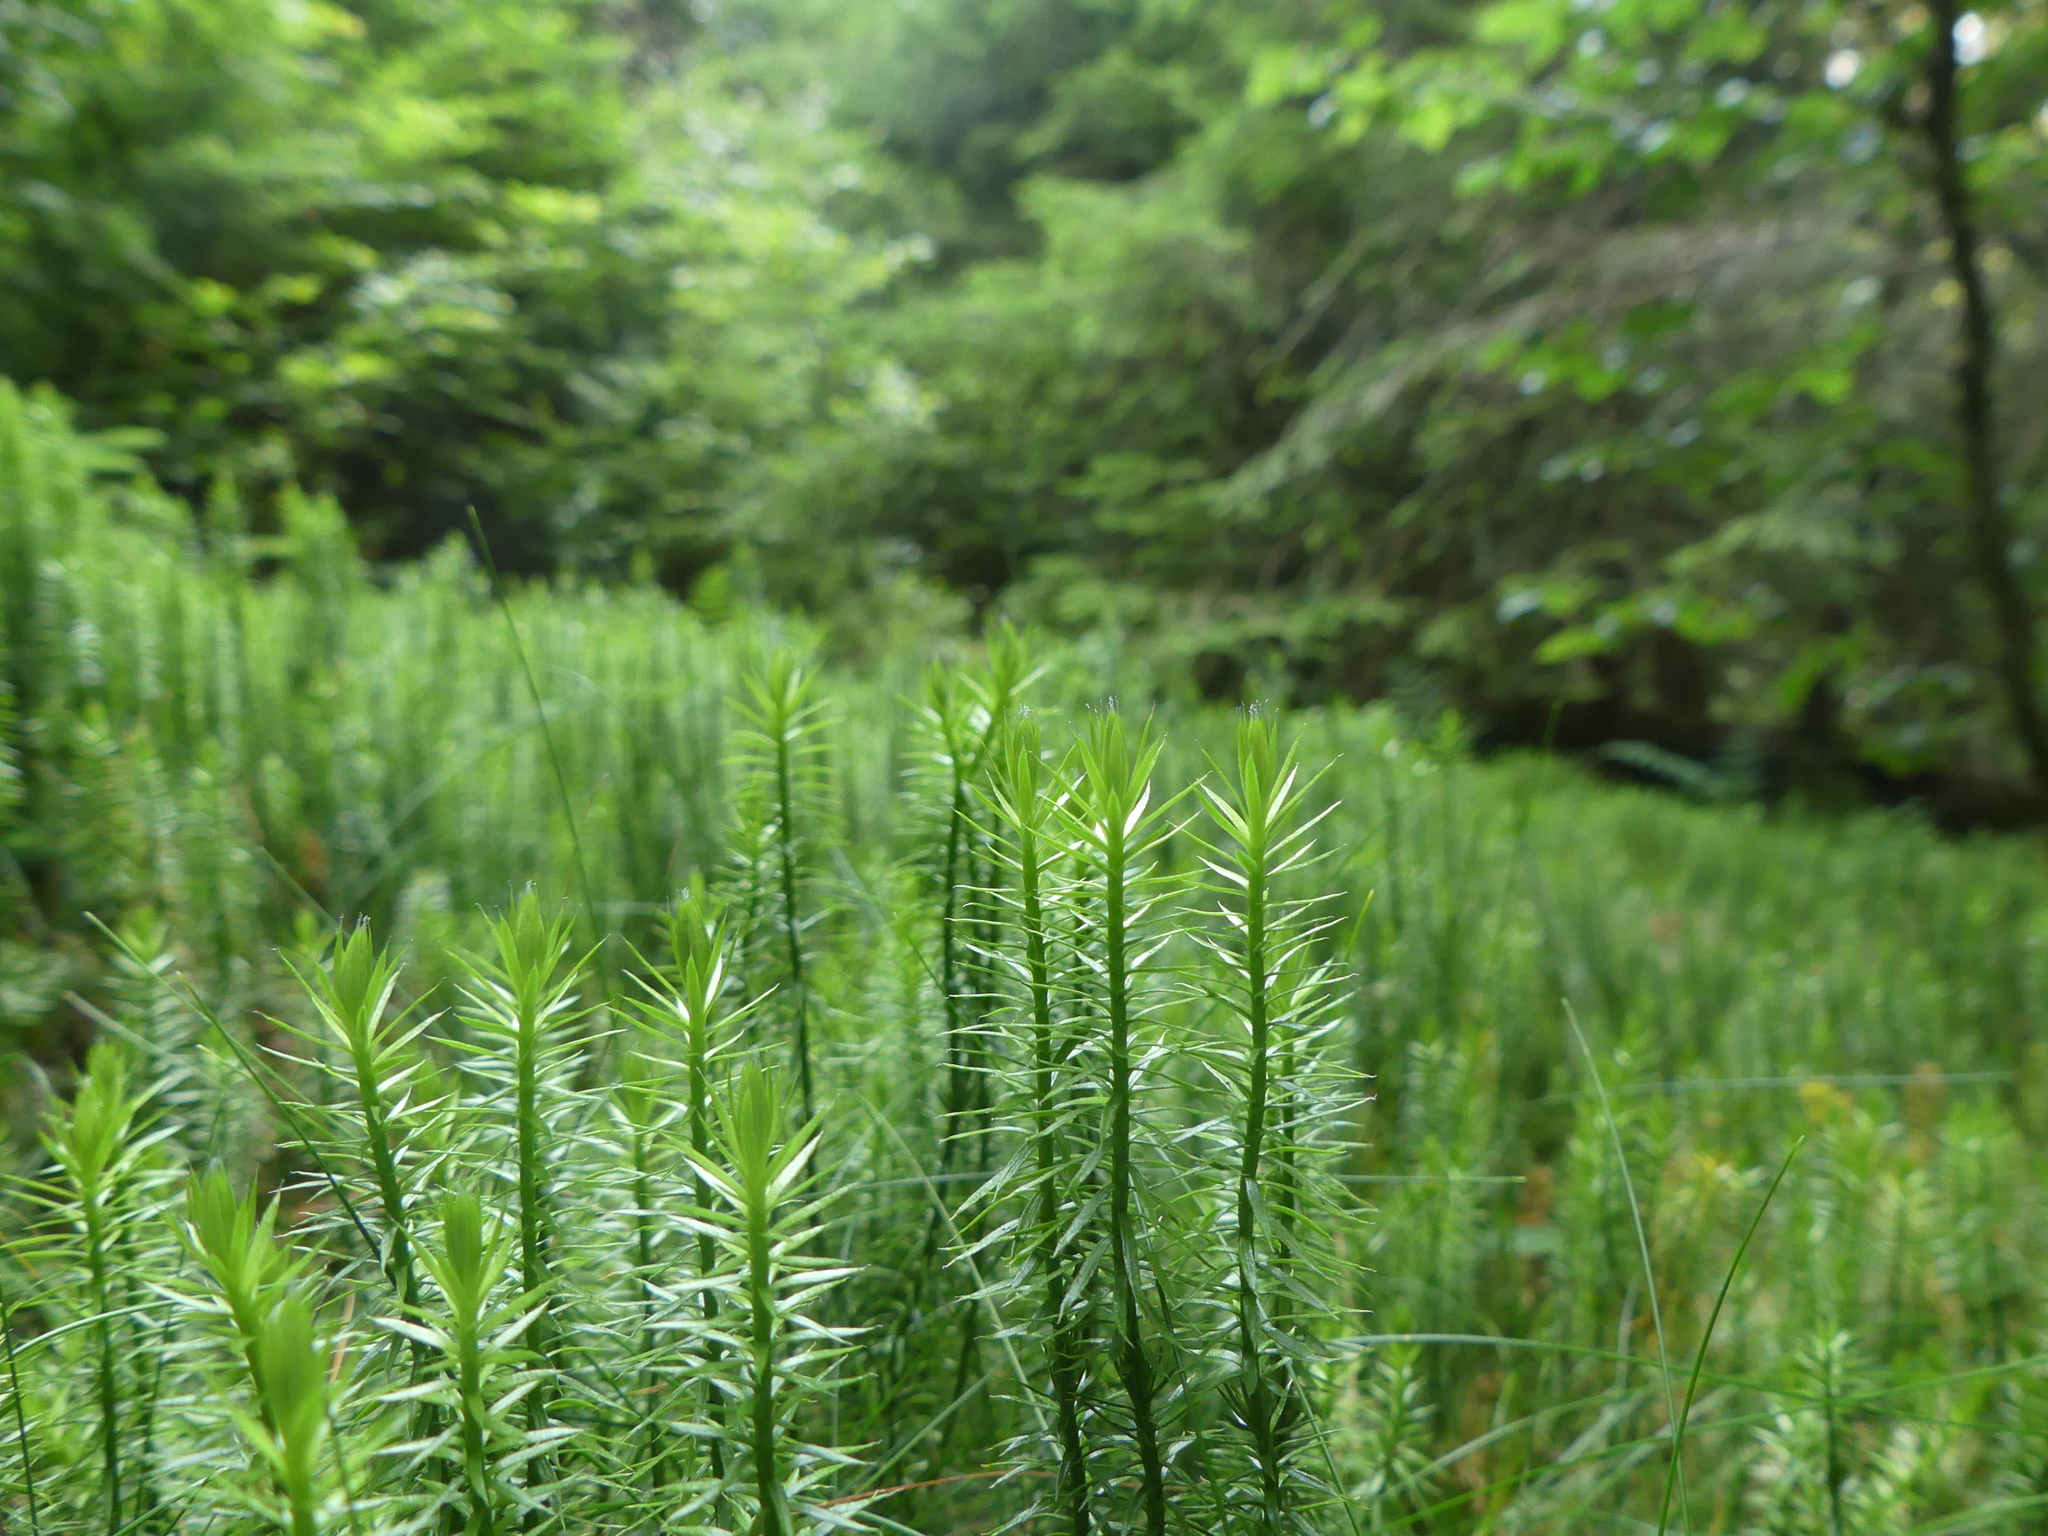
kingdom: Plantae
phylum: Tracheophyta
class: Lycopodiopsida
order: Lycopodiales
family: Lycopodiaceae
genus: Spinulum
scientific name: Spinulum annotinum
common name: Interrupted club-moss
